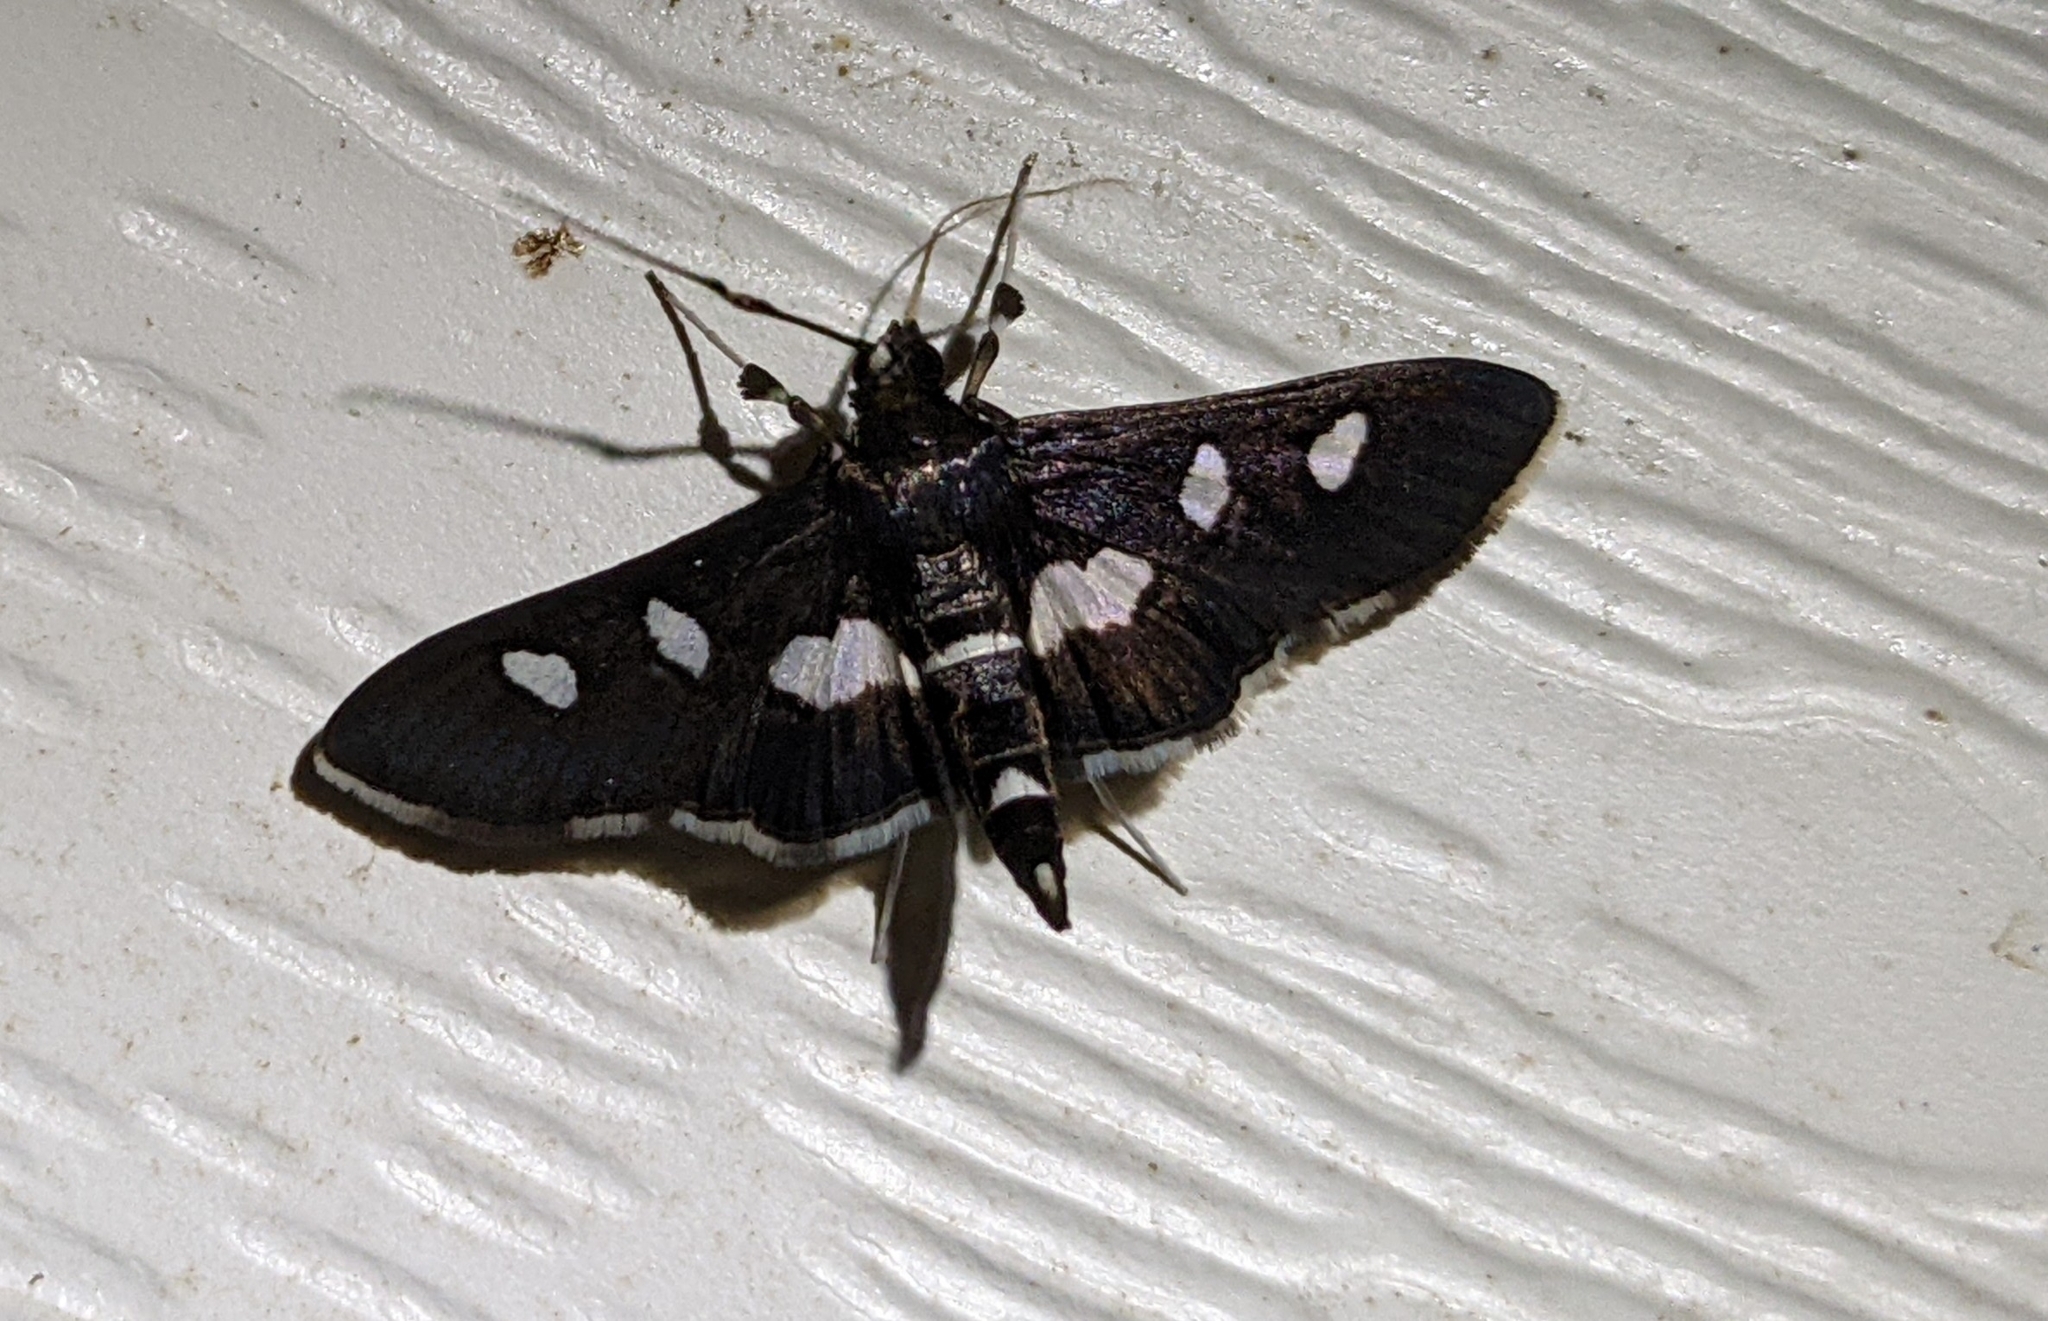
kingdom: Animalia
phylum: Arthropoda
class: Insecta
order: Lepidoptera
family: Crambidae
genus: Desmia
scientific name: Desmia funeralis
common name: Grape leaf folder moth
